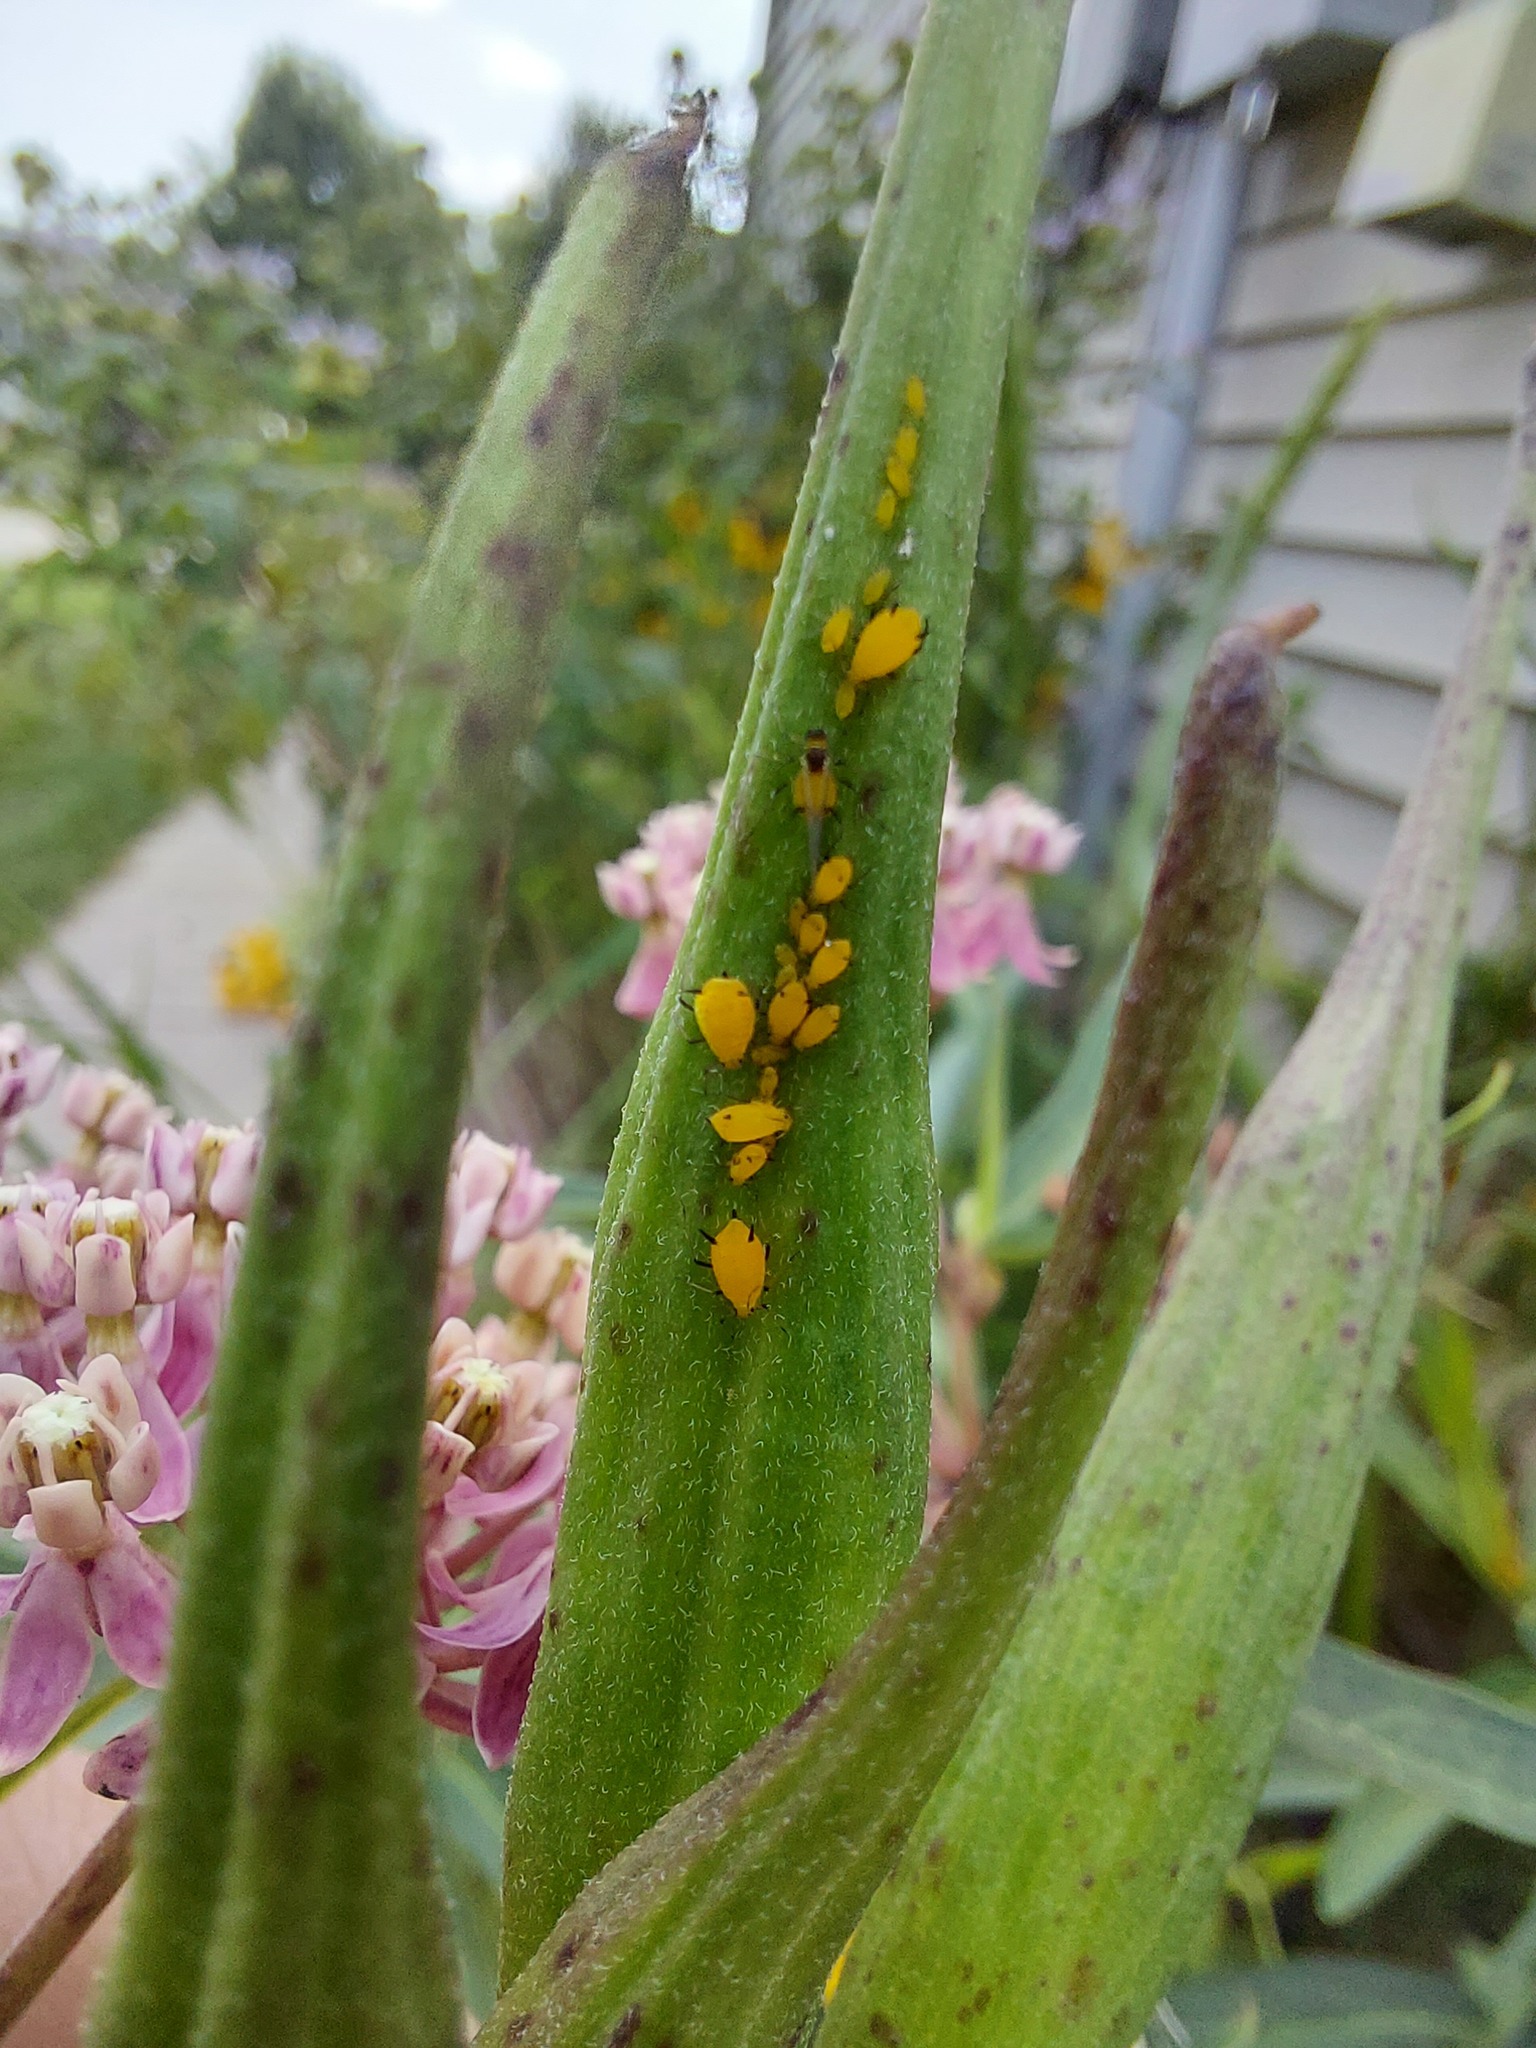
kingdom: Animalia
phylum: Arthropoda
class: Insecta
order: Hemiptera
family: Aphididae
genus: Aphis
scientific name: Aphis nerii
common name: Oleander aphid
